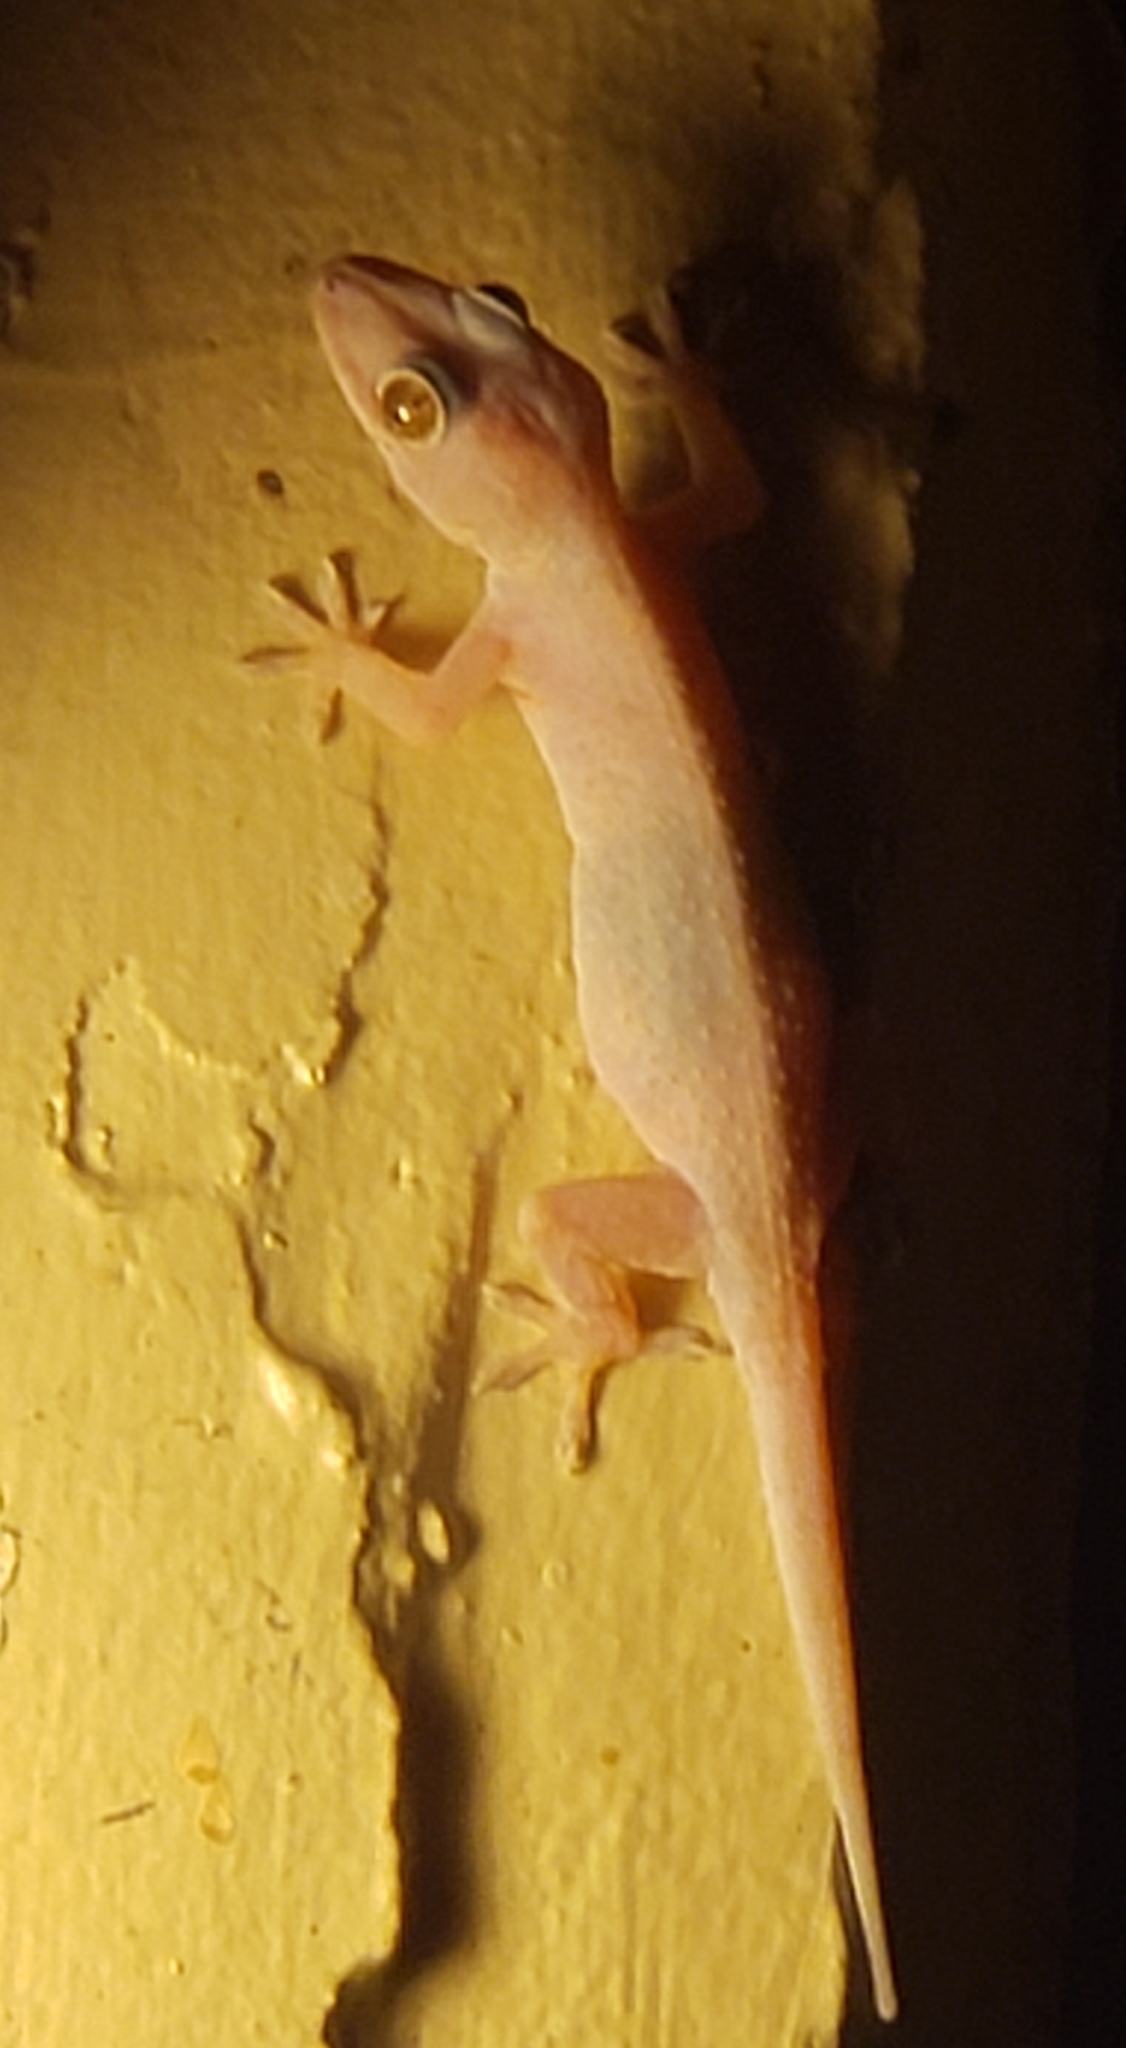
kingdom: Animalia
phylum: Chordata
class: Squamata
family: Gekkonidae
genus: Hemidactylus
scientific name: Hemidactylus mabouia
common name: House gecko
